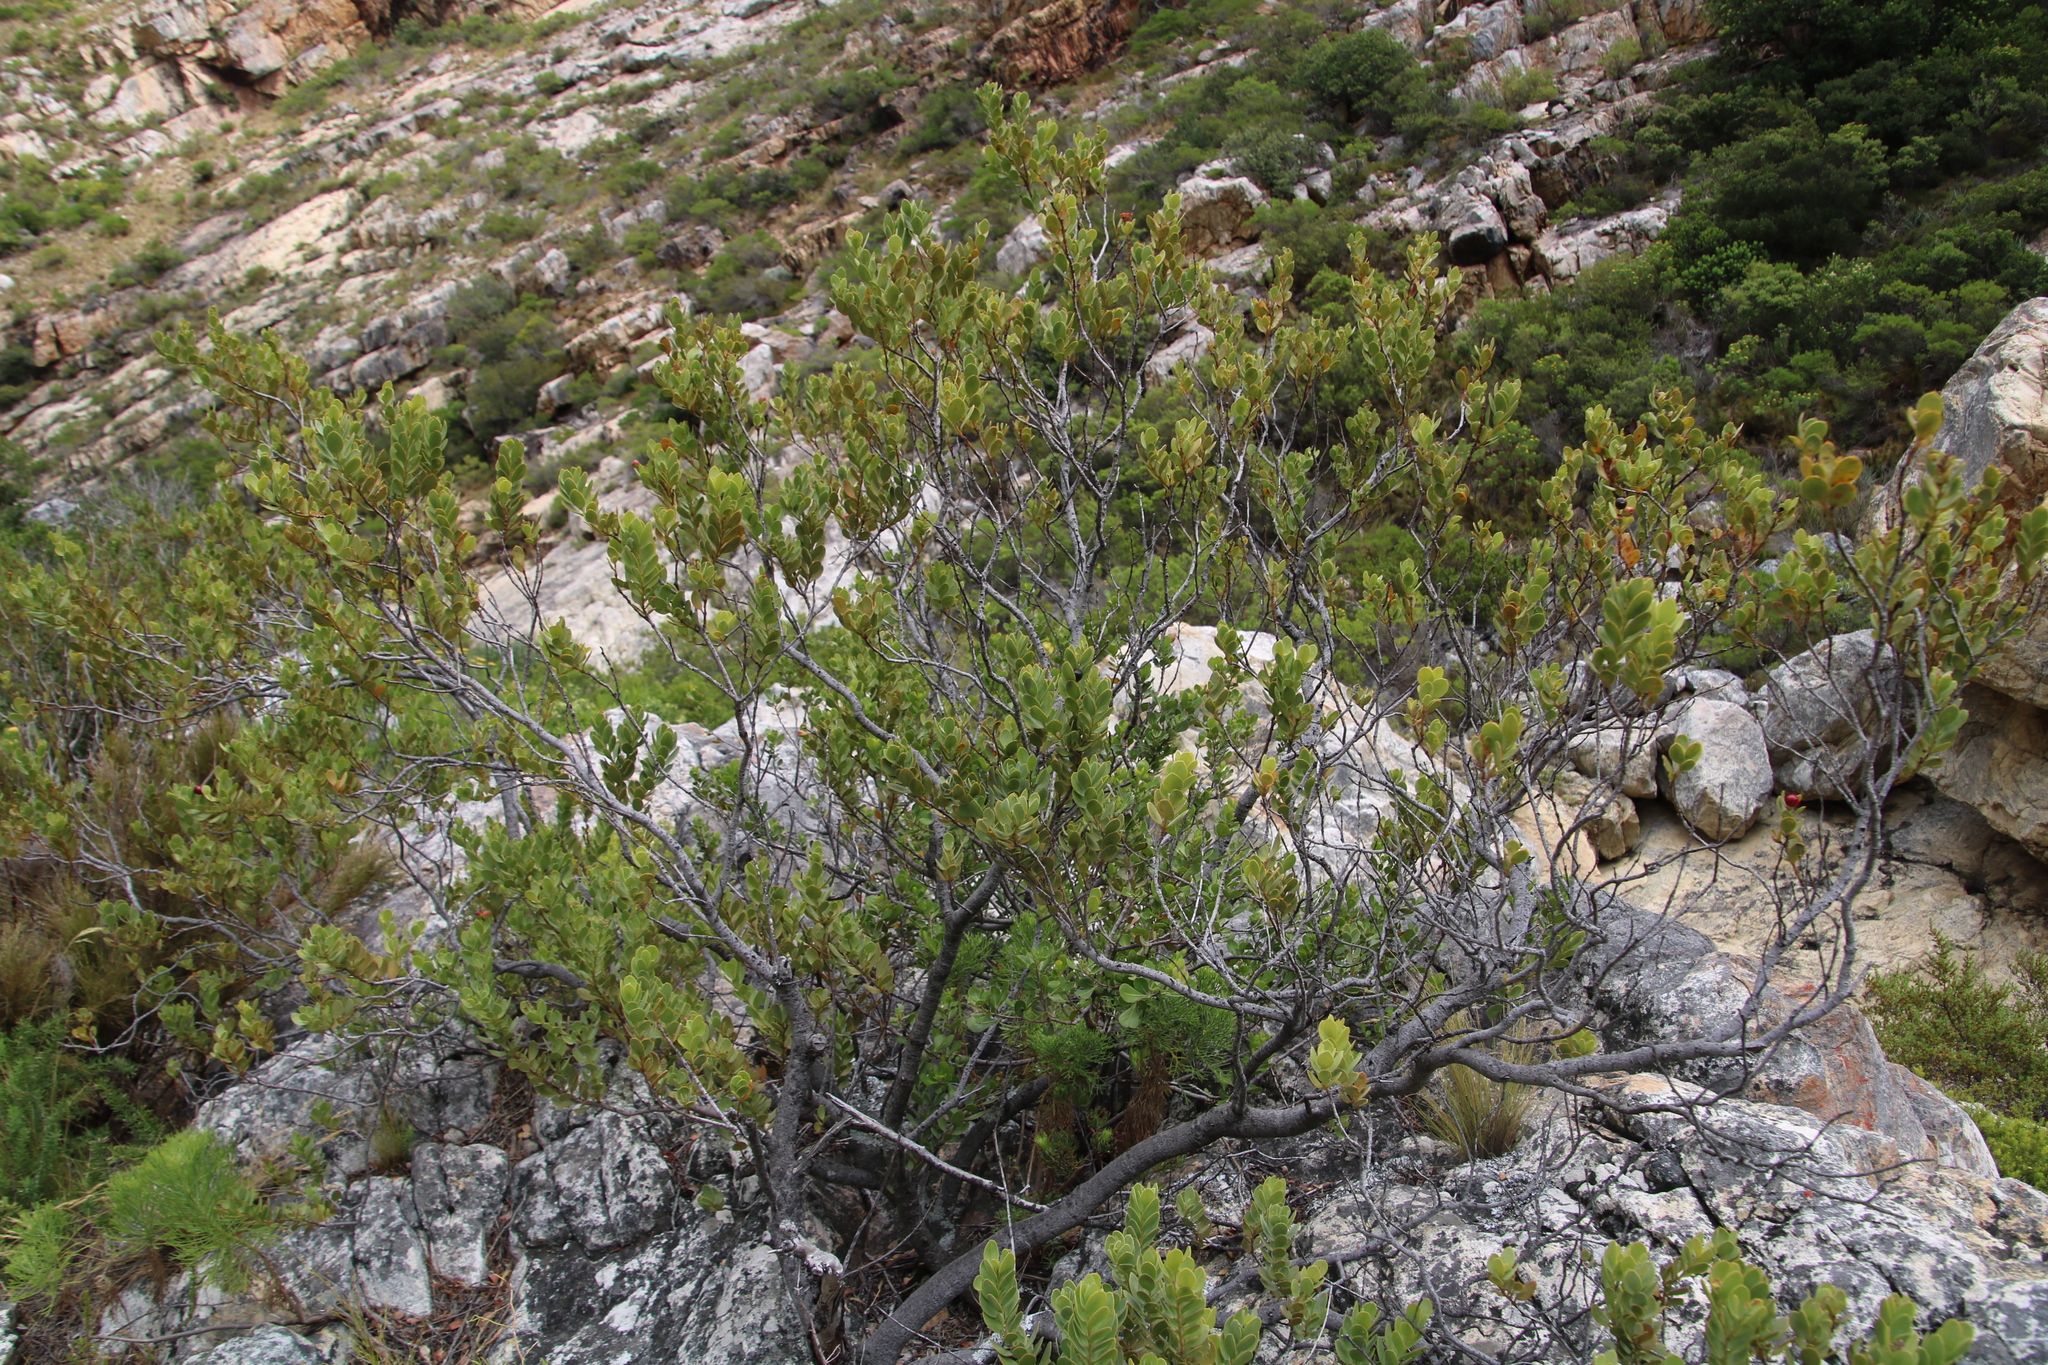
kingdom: Plantae
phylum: Tracheophyta
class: Magnoliopsida
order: Santalales
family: Santalaceae
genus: Osyris
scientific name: Osyris compressa
